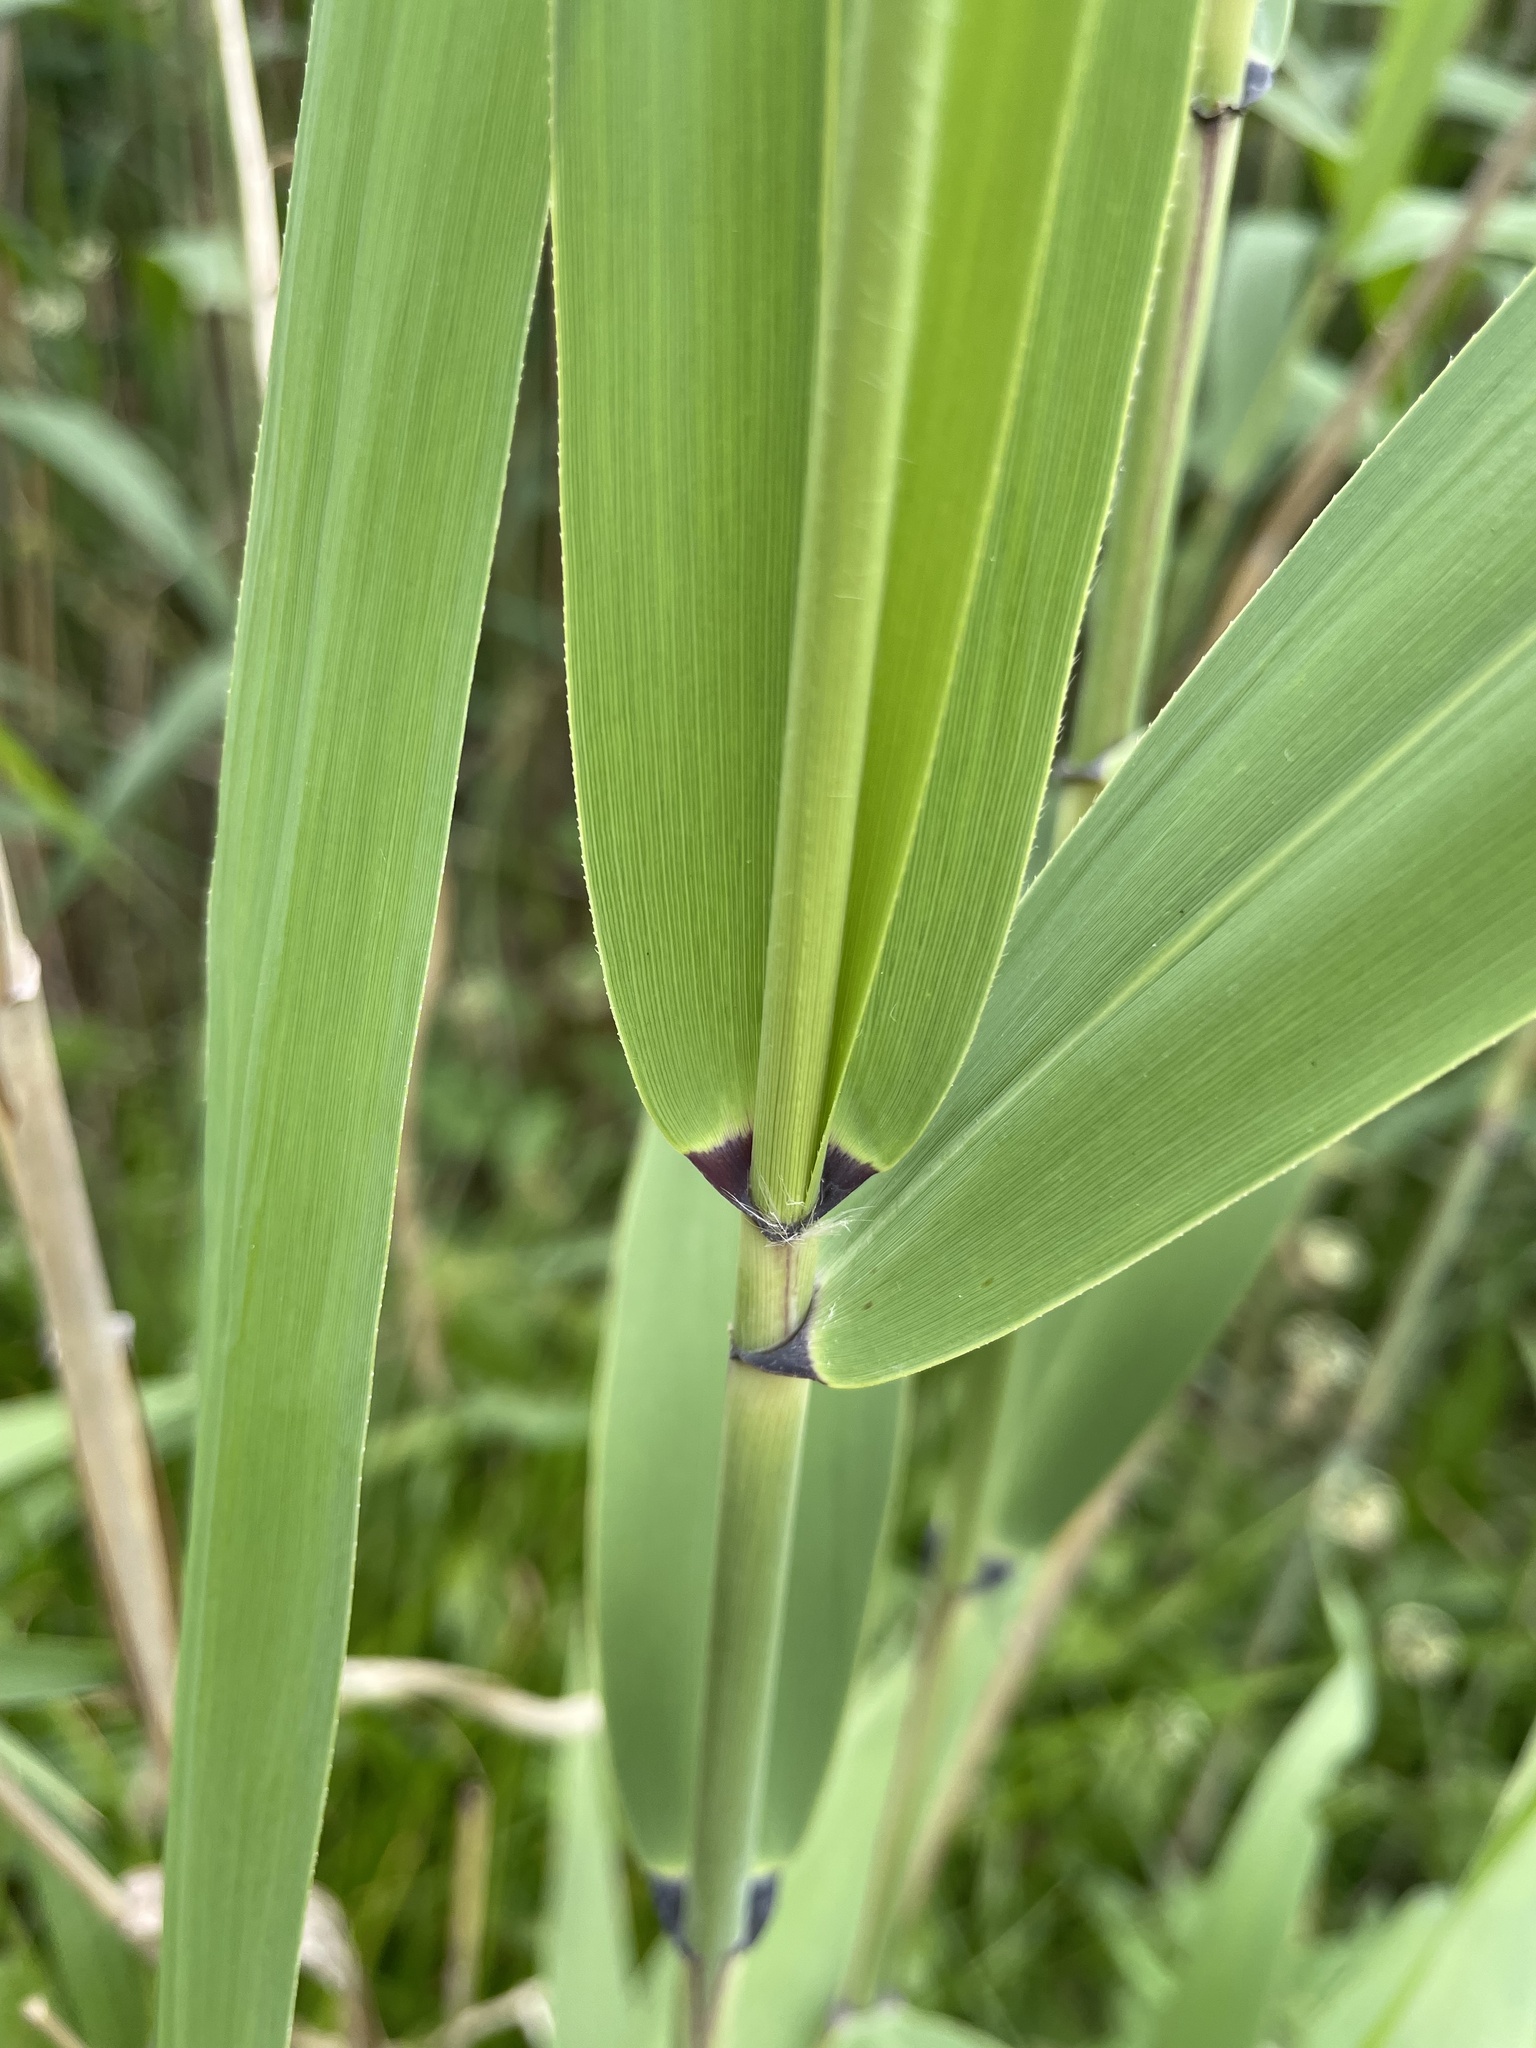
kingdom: Plantae
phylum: Tracheophyta
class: Liliopsida
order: Poales
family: Poaceae
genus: Phragmites
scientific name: Phragmites australis
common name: Common reed
